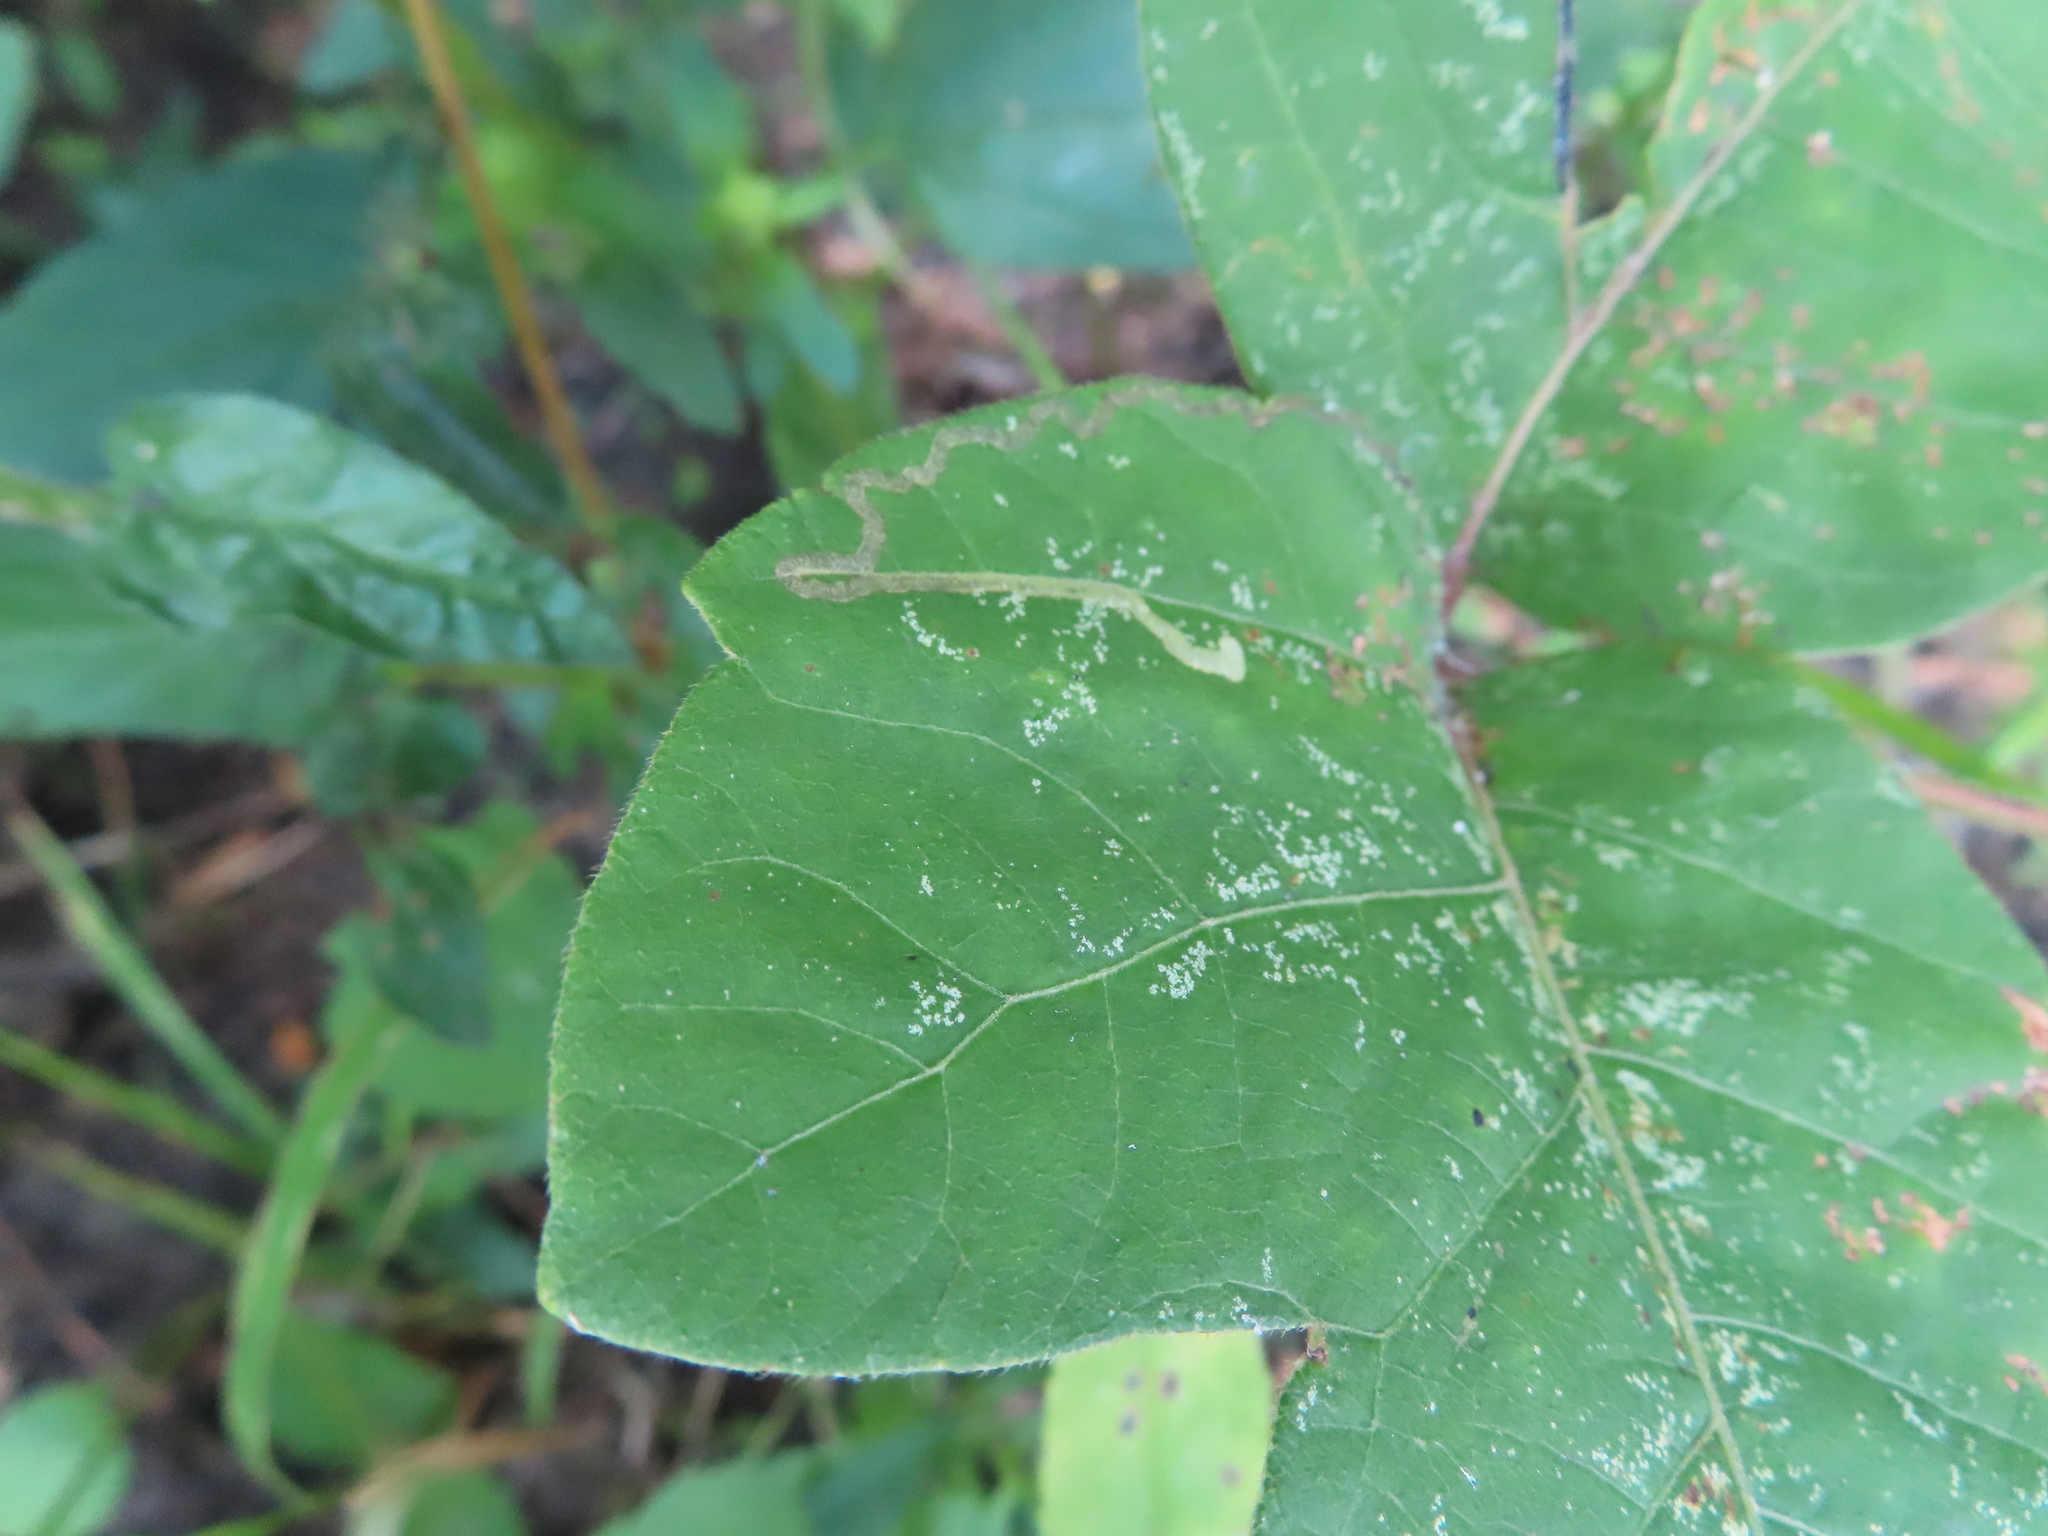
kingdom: Animalia
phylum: Arthropoda
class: Insecta
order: Lepidoptera
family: Nepticulidae
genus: Stigmella
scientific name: Stigmella rhoifoliella
